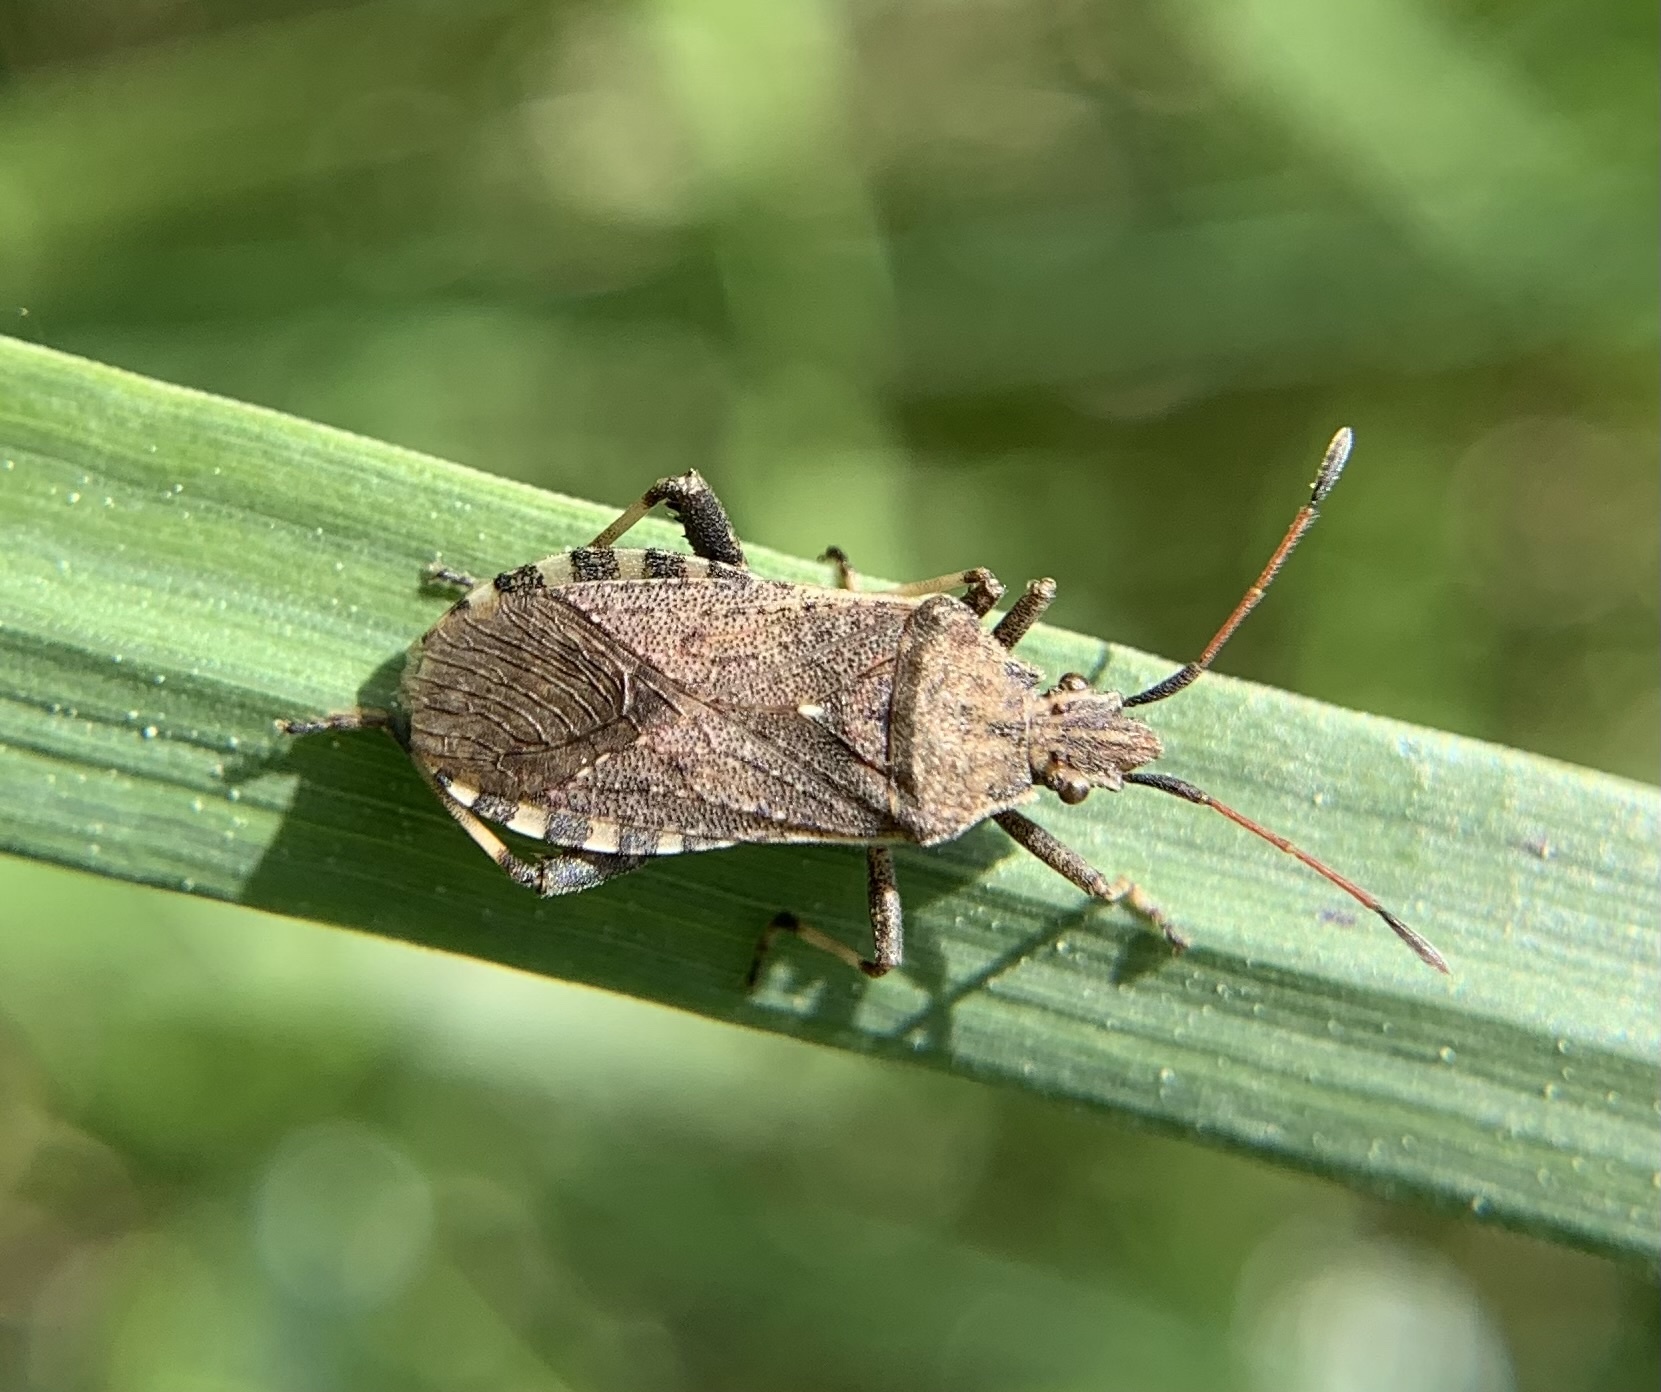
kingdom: Animalia
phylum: Arthropoda
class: Insecta
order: Hemiptera
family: Coreidae
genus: Ceraleptus
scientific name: Ceraleptus gracilicornis
